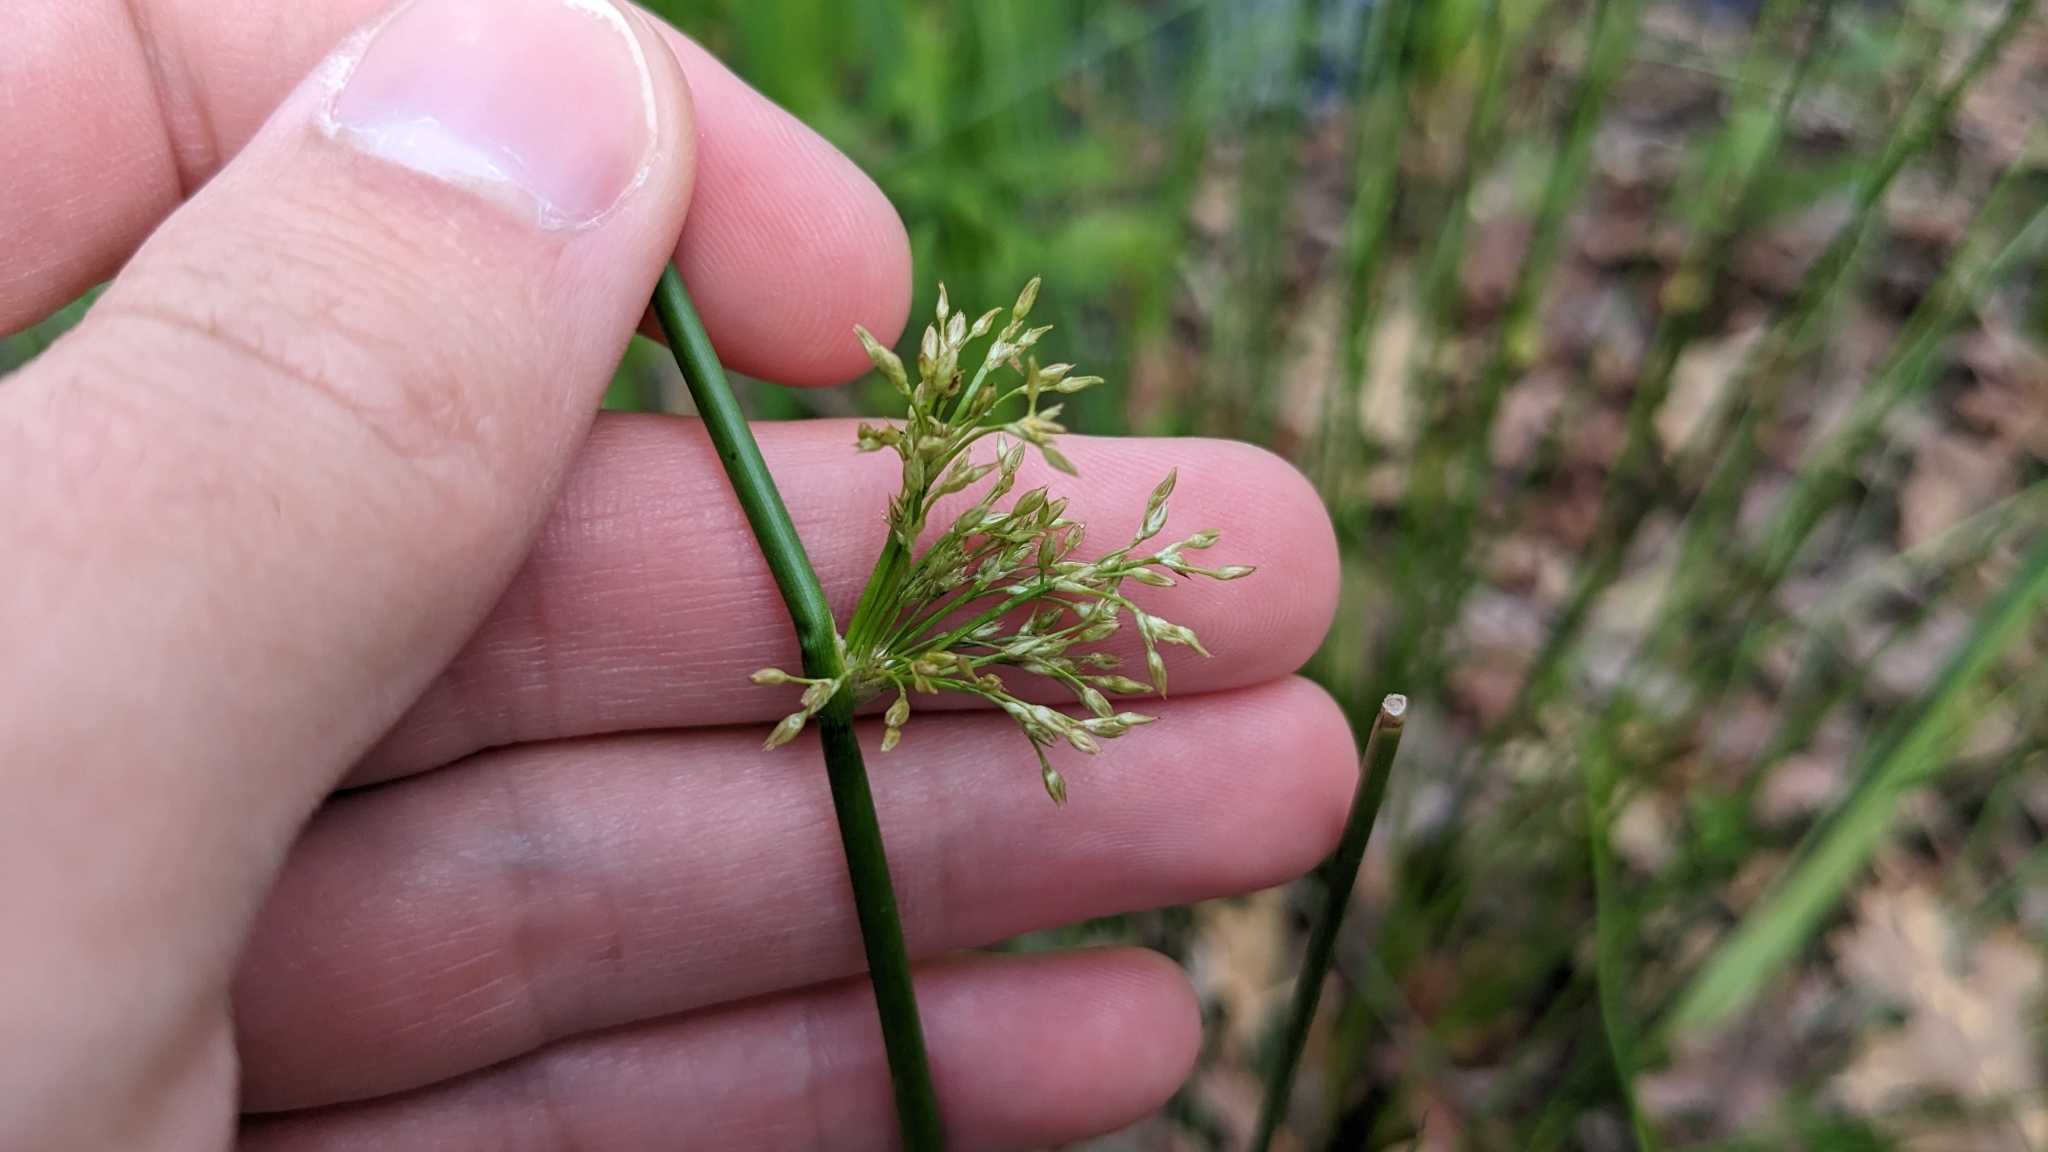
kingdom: Plantae
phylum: Tracheophyta
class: Liliopsida
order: Poales
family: Juncaceae
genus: Juncus
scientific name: Juncus effusus
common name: Soft rush
